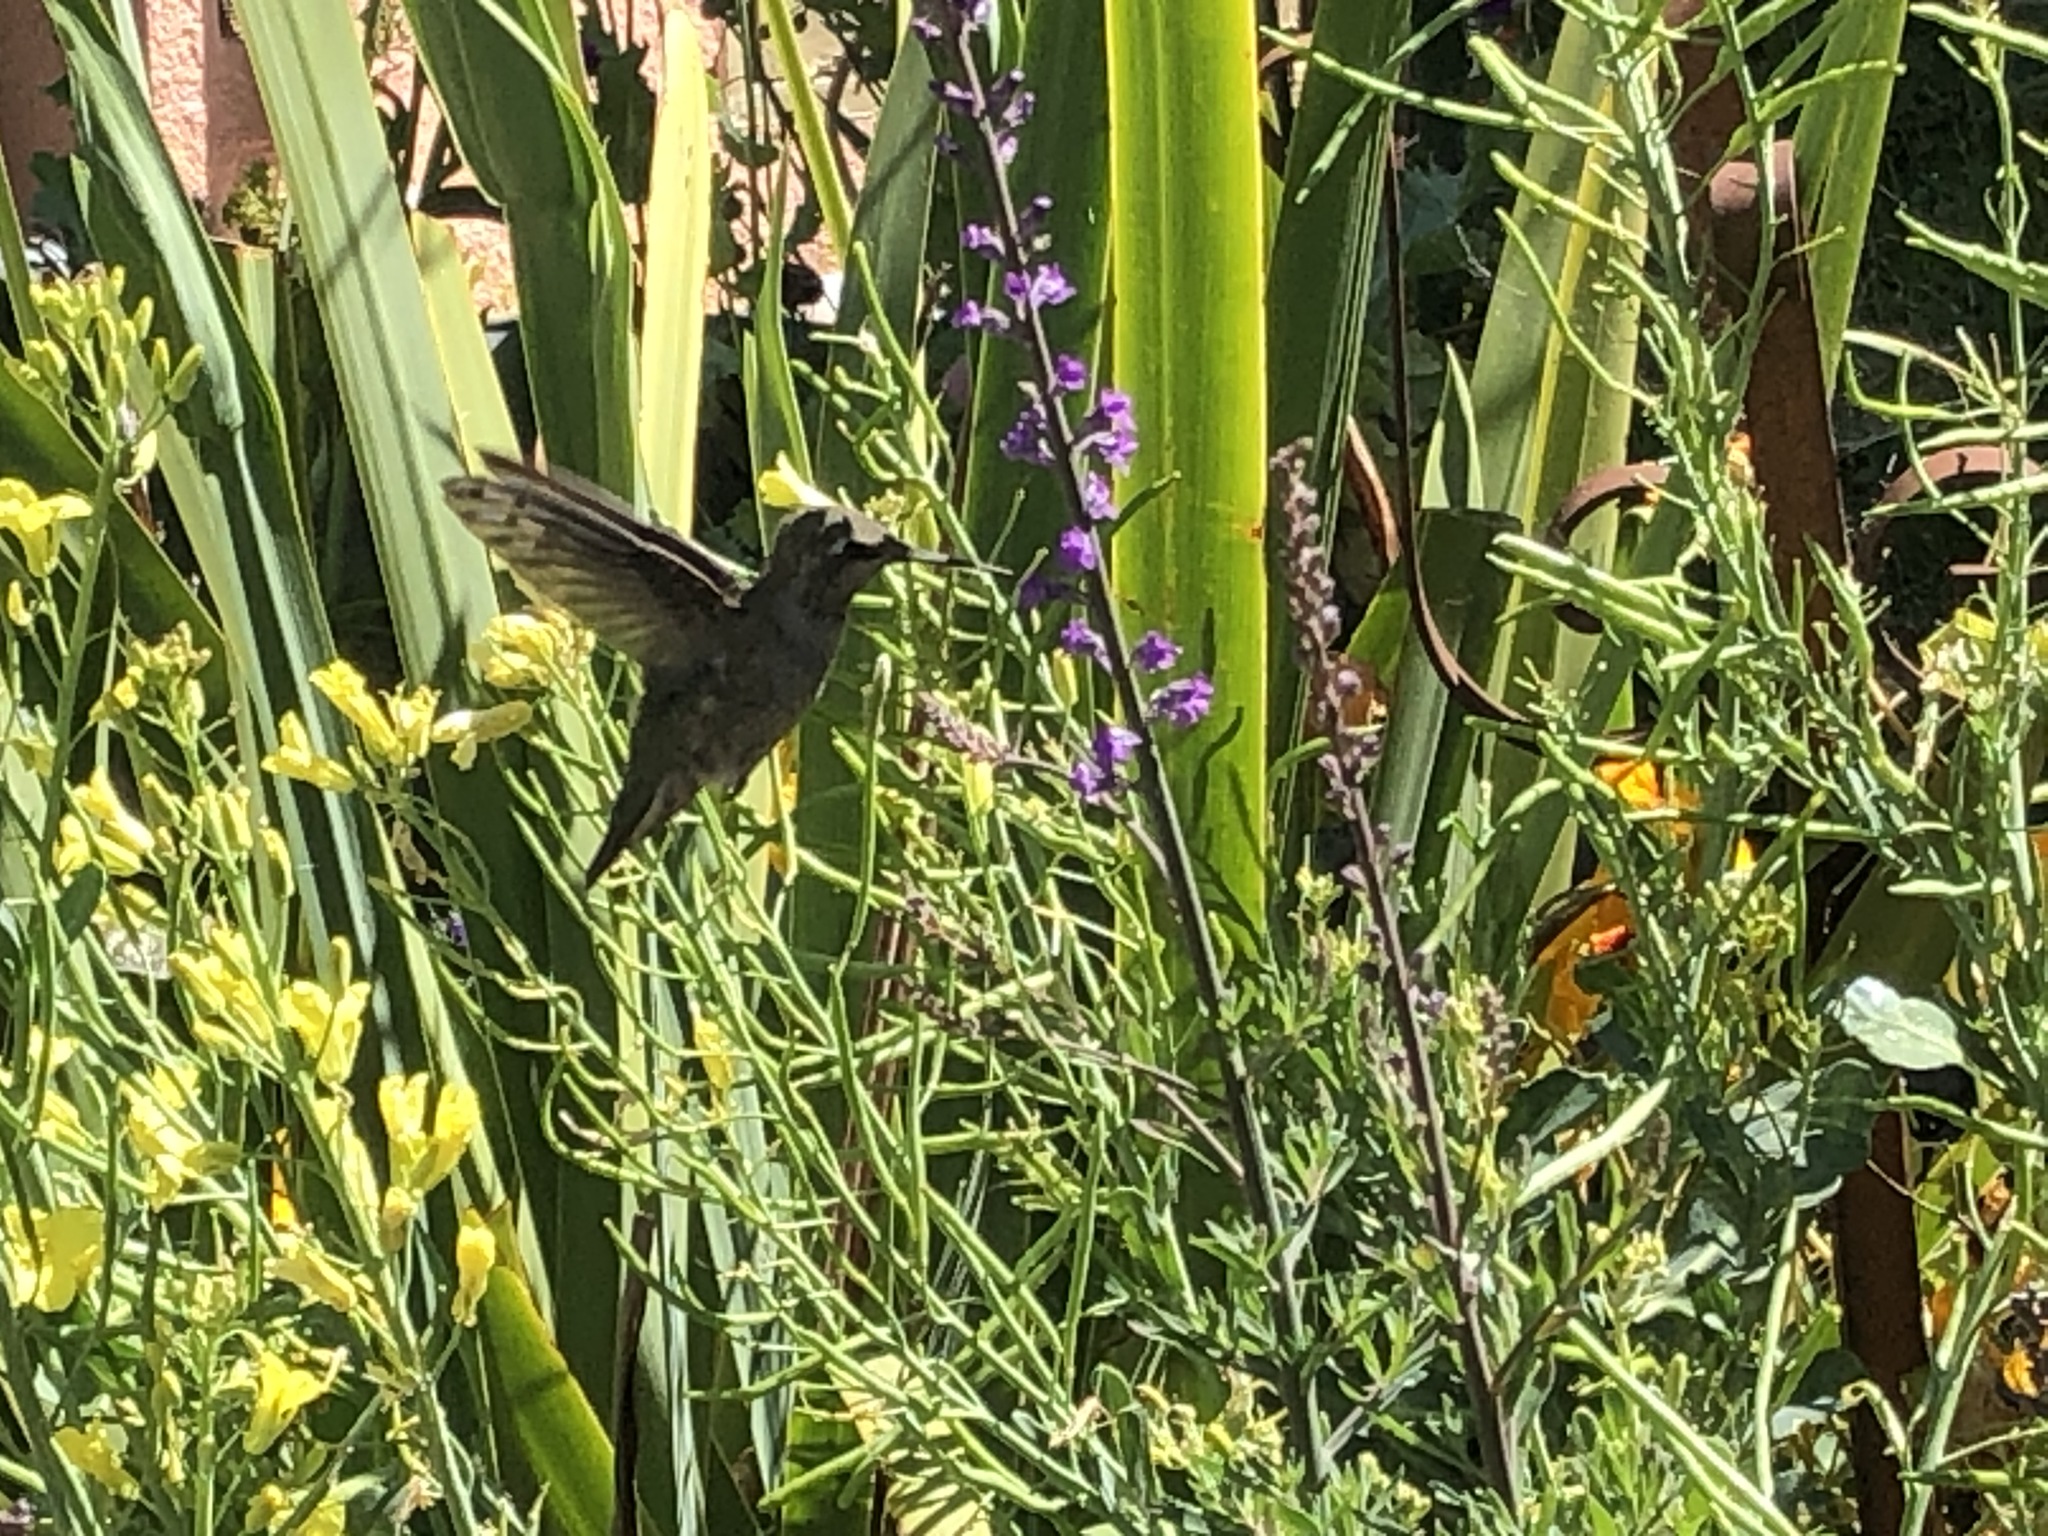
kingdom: Animalia
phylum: Chordata
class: Aves
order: Apodiformes
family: Trochilidae
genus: Calypte
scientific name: Calypte anna
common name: Anna's hummingbird
